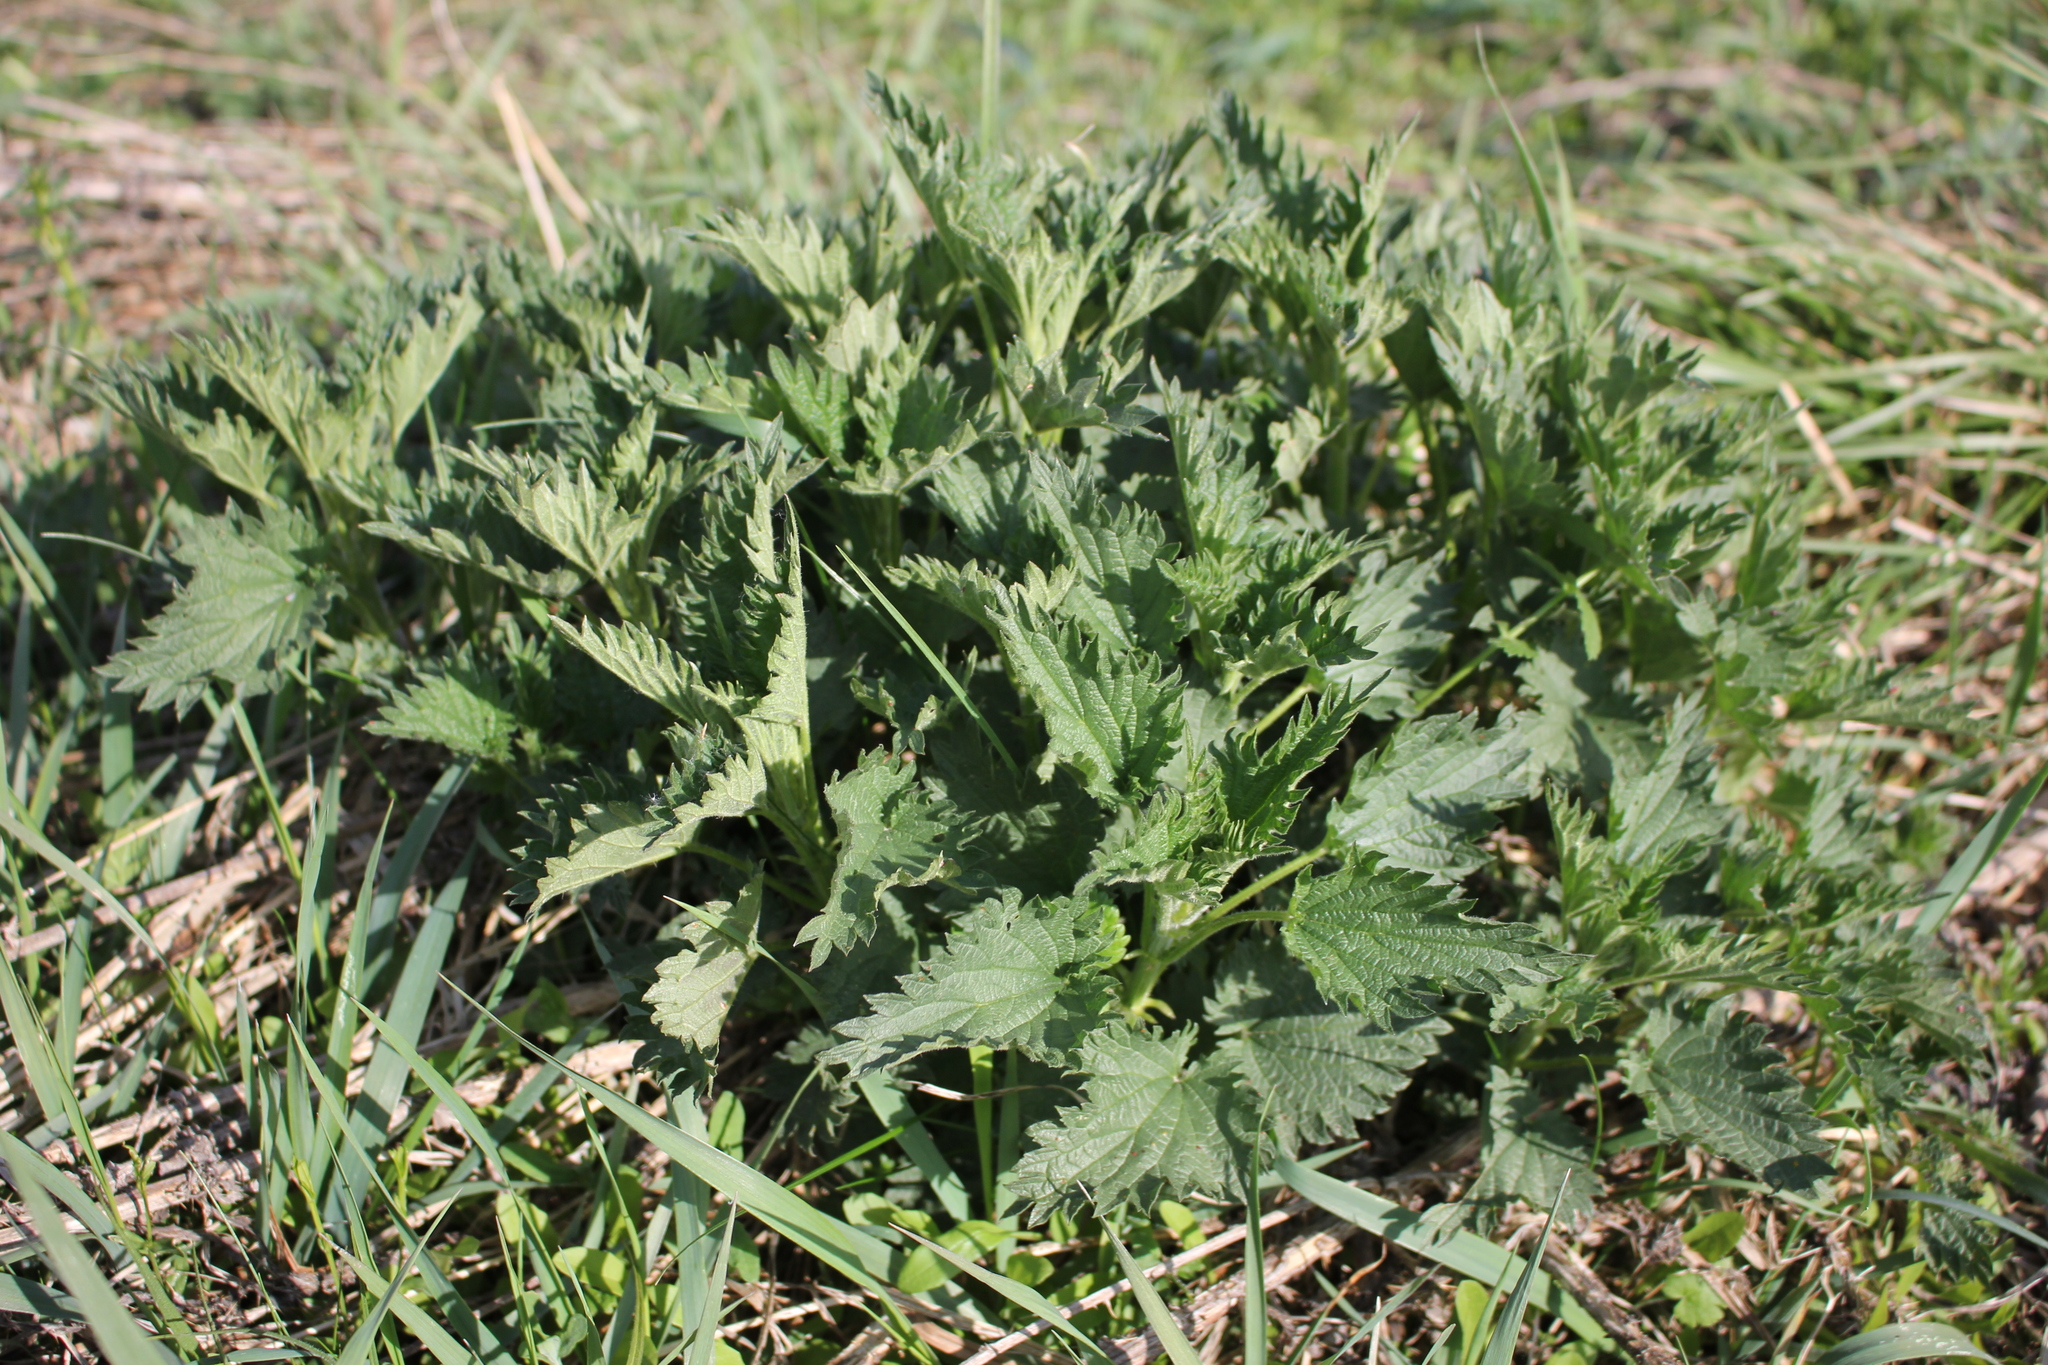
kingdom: Plantae
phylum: Tracheophyta
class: Magnoliopsida
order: Rosales
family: Urticaceae
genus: Urtica
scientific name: Urtica dioica
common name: Common nettle
